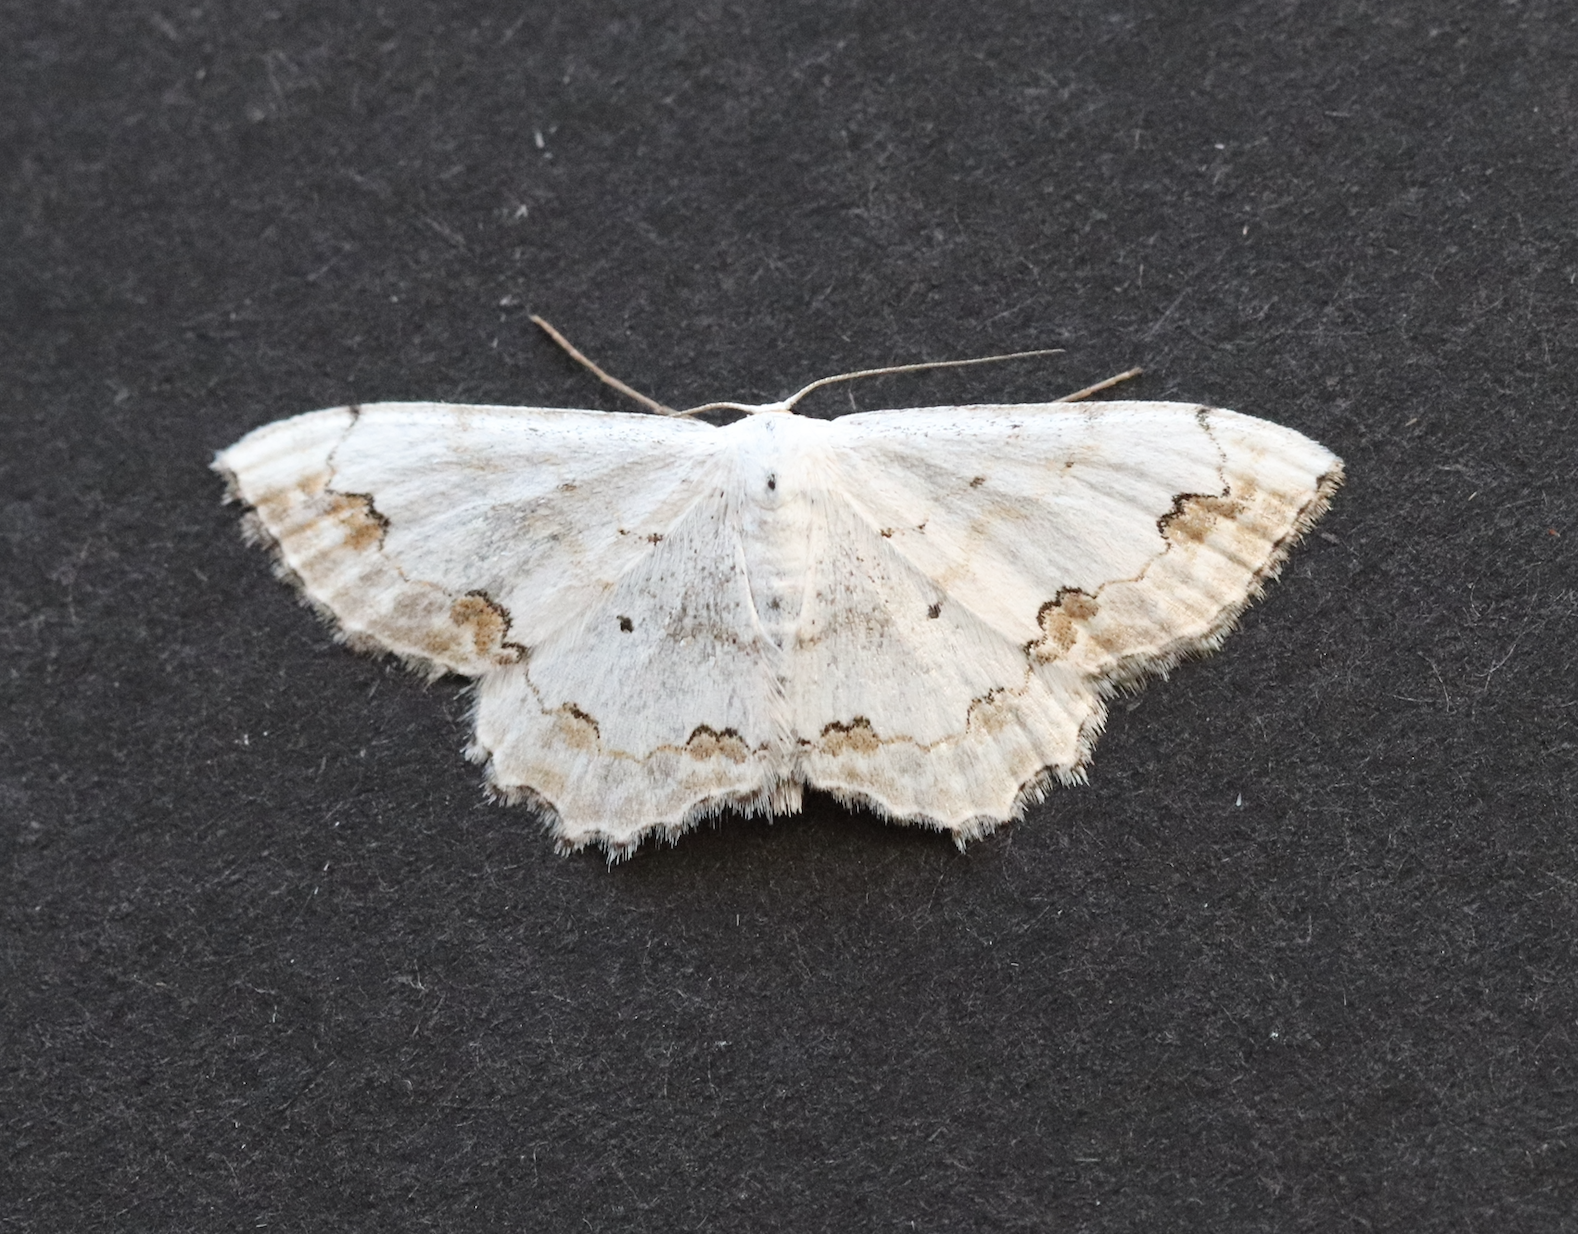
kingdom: Animalia
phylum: Arthropoda
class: Insecta
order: Lepidoptera
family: Geometridae
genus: Scopula
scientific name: Scopula ornata
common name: Lace border
